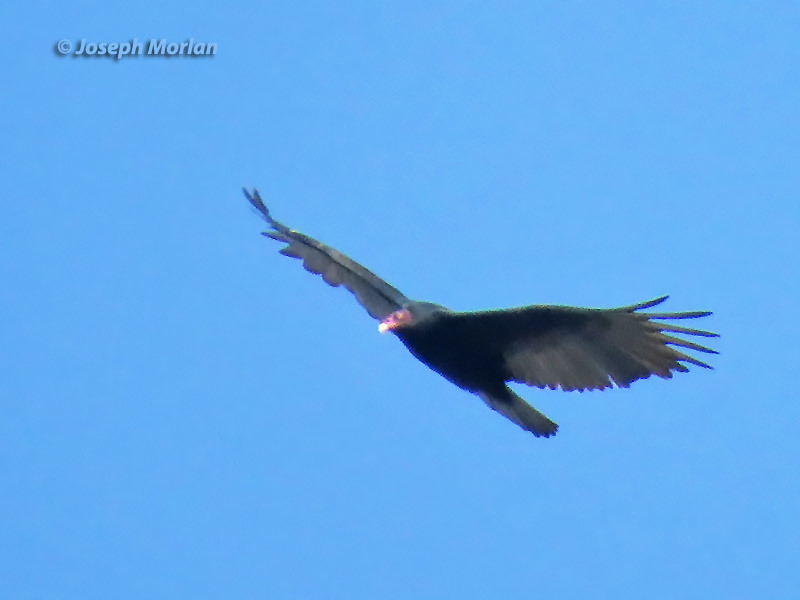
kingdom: Animalia
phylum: Chordata
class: Aves
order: Accipitriformes
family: Cathartidae
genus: Cathartes
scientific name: Cathartes aura
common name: Turkey vulture
